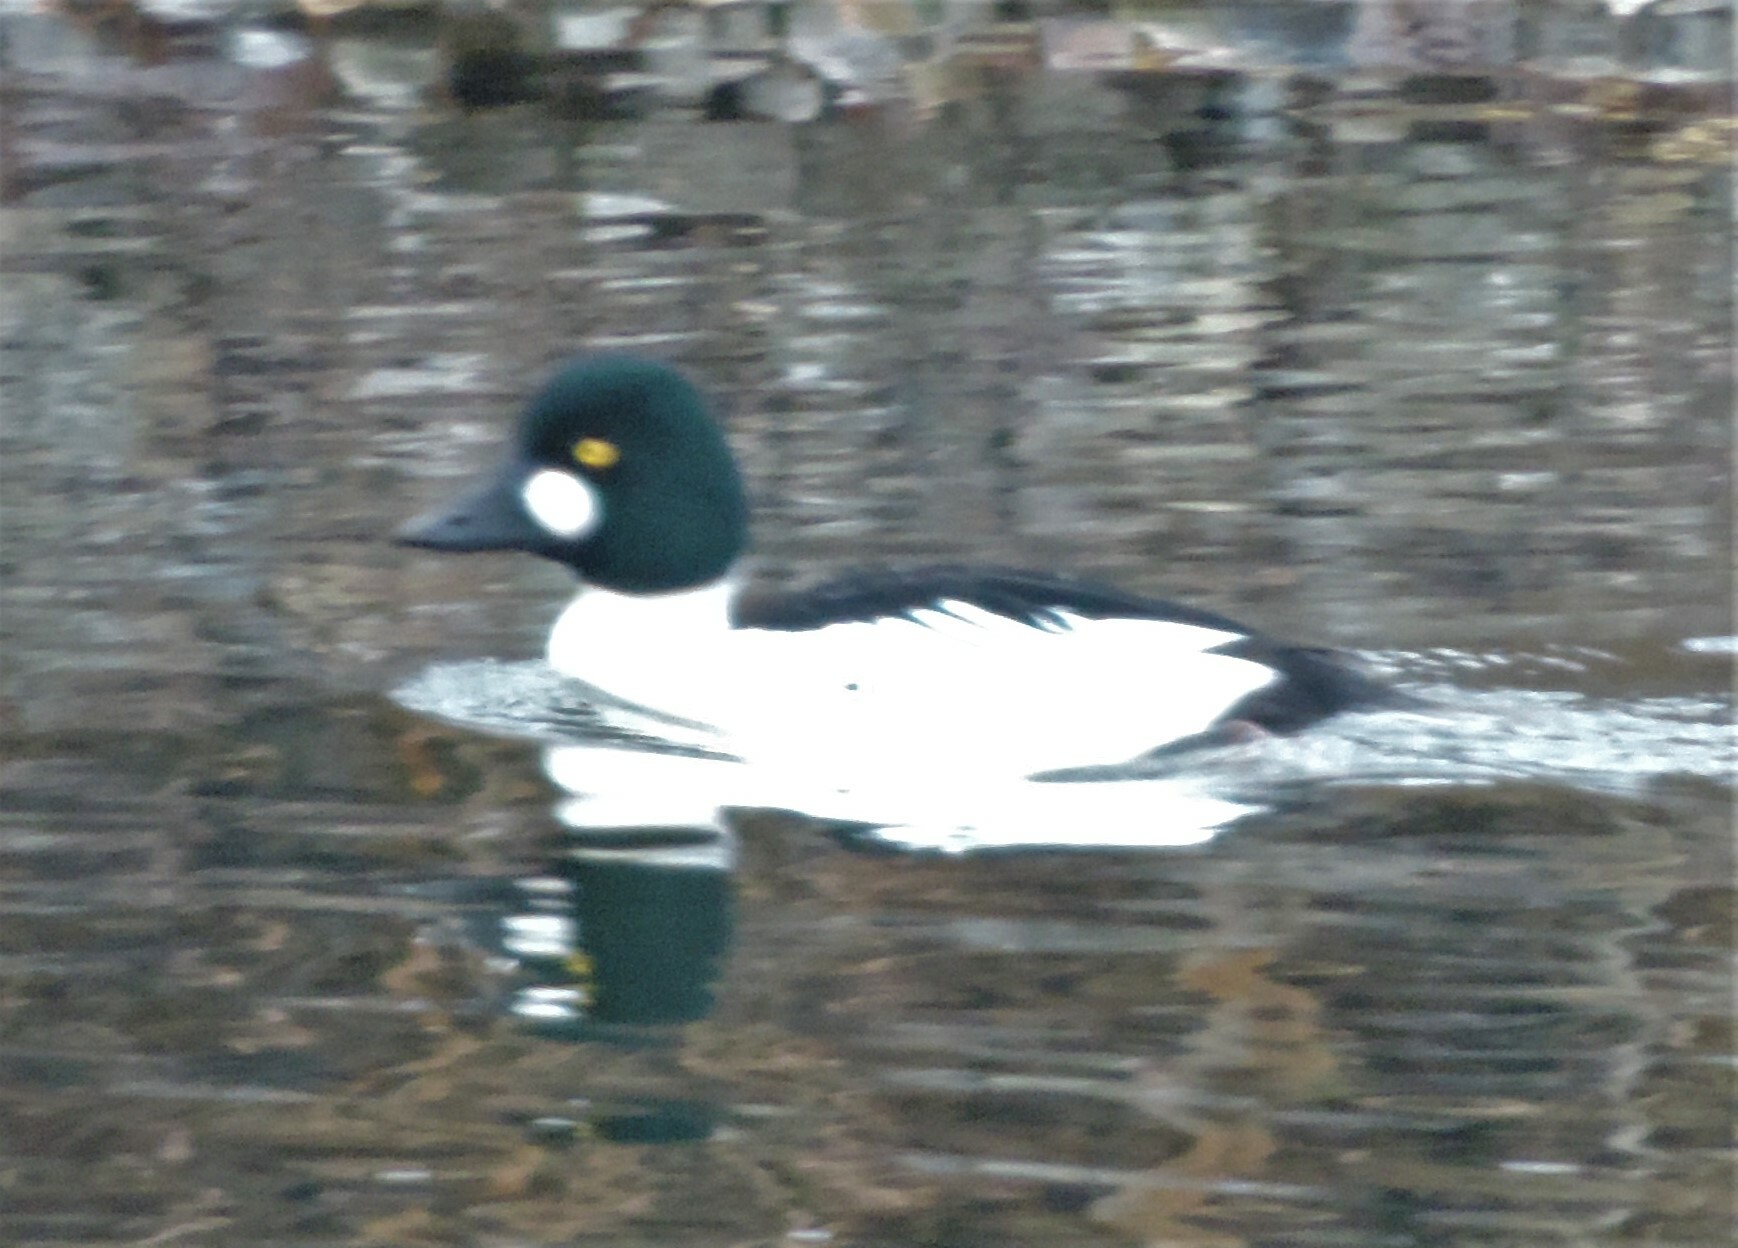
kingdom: Animalia
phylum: Chordata
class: Aves
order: Anseriformes
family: Anatidae
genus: Bucephala
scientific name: Bucephala clangula
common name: Common goldeneye
